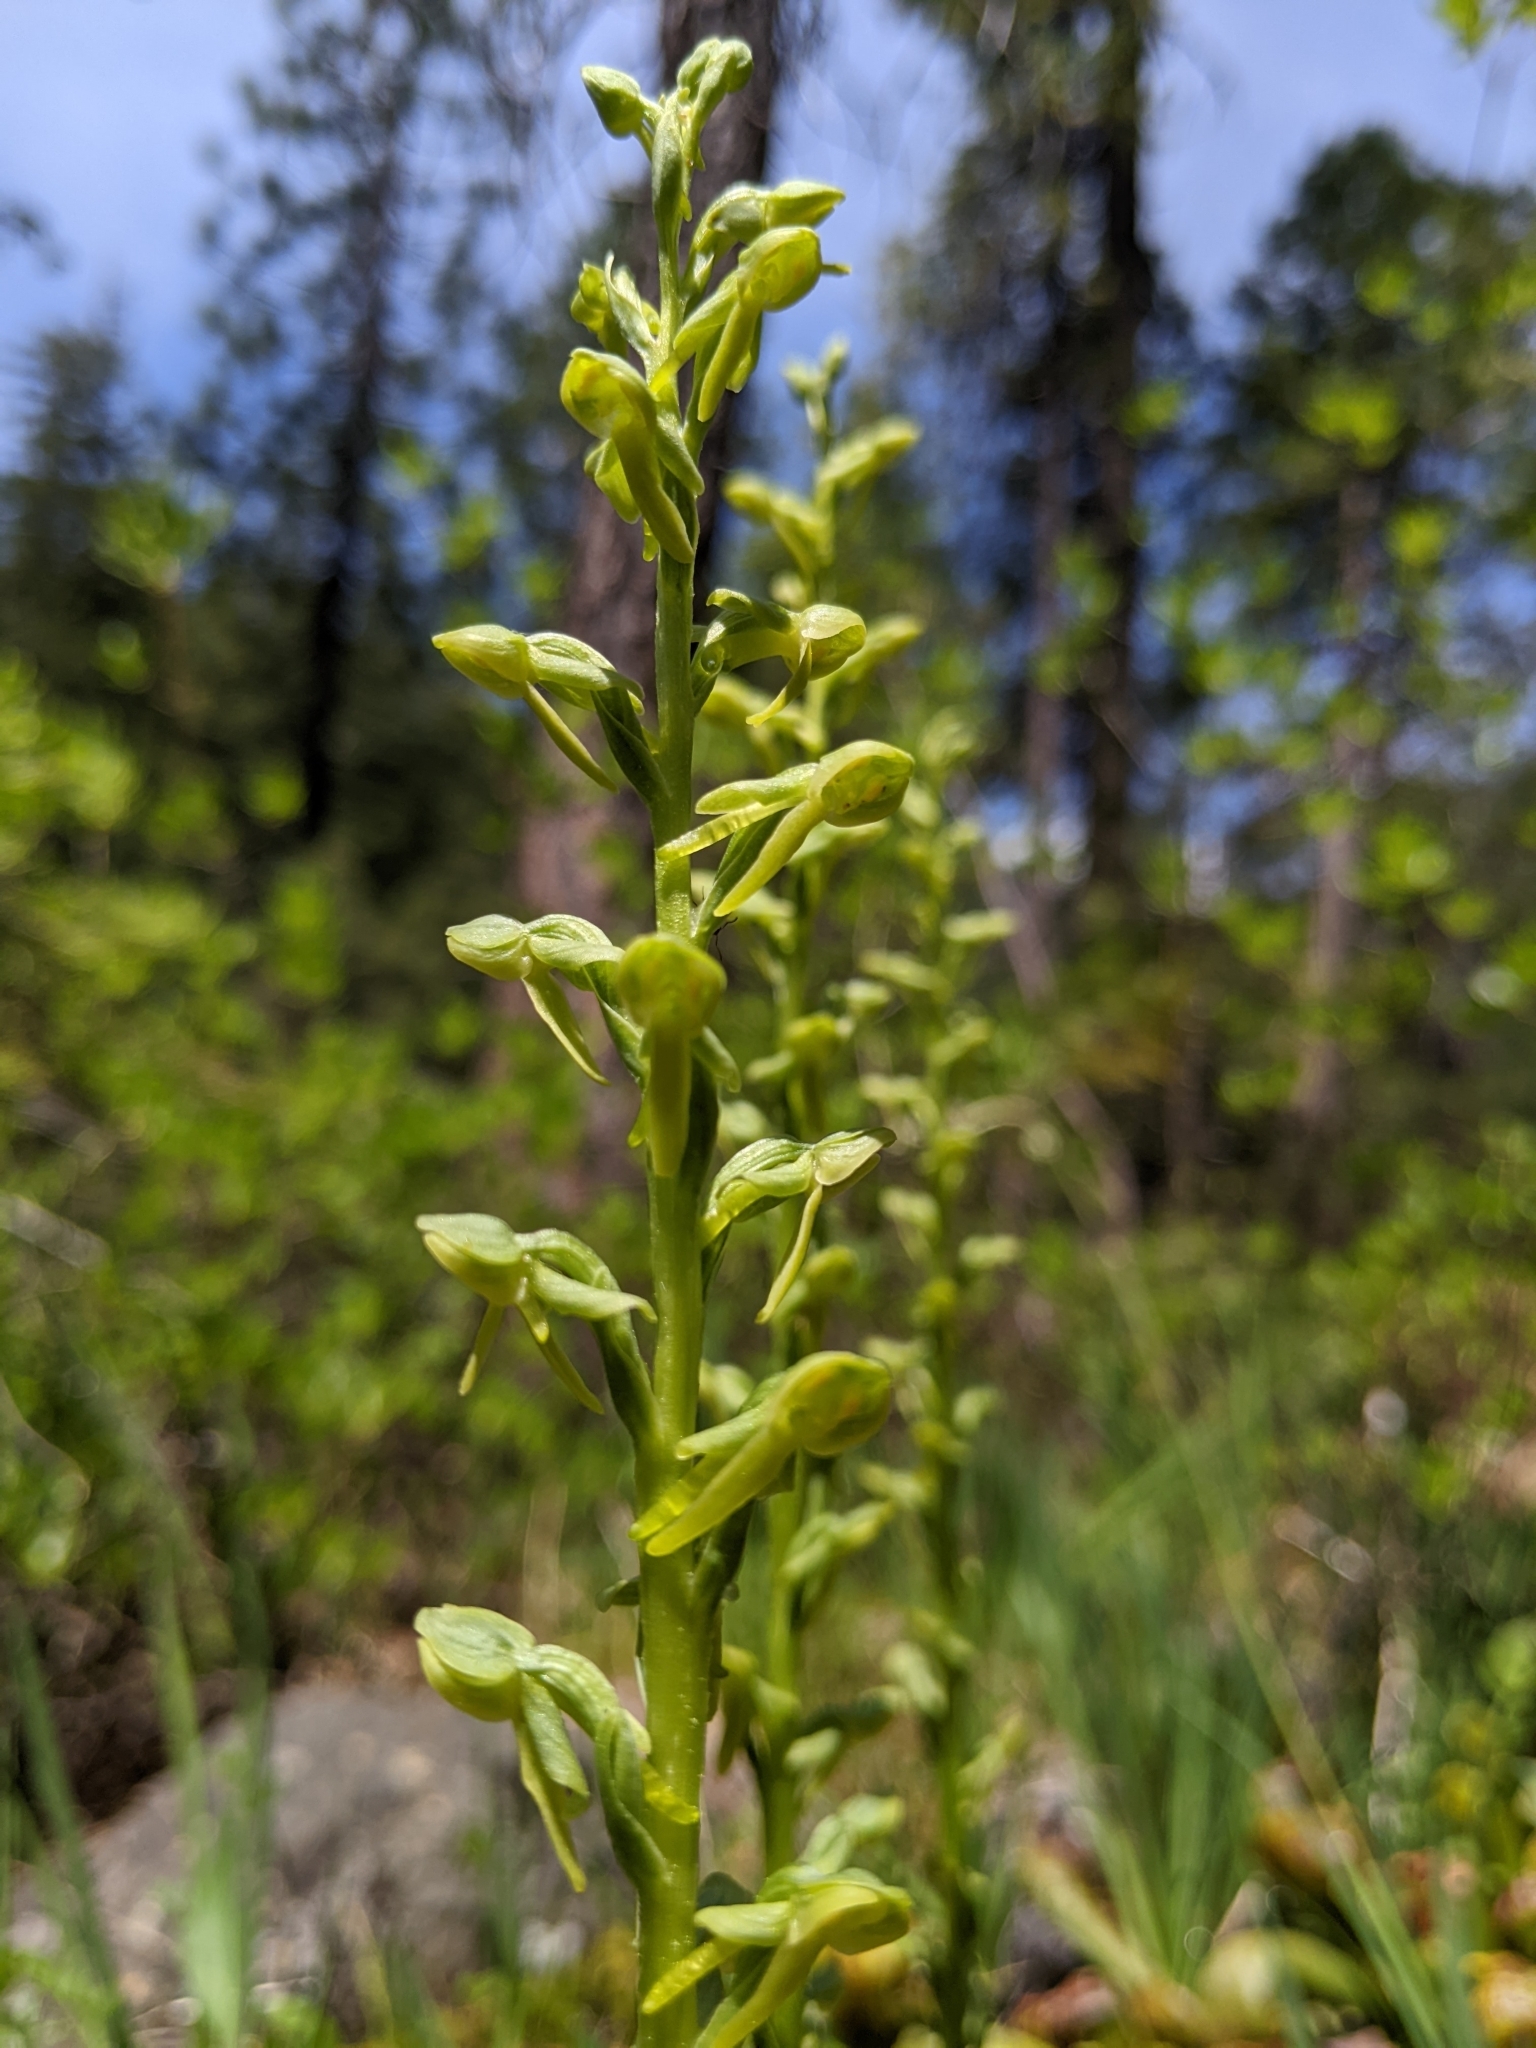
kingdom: Plantae
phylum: Tracheophyta
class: Liliopsida
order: Asparagales
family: Orchidaceae
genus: Platanthera
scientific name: Platanthera sparsiflora
